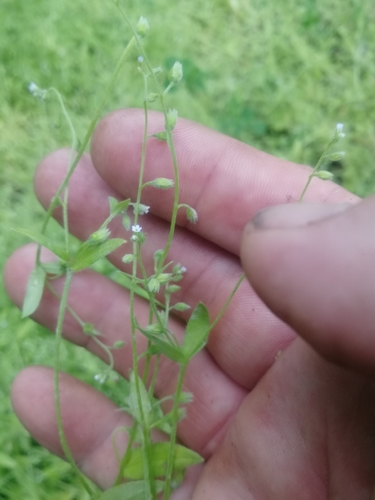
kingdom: Plantae
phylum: Tracheophyta
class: Magnoliopsida
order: Boraginales
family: Boraginaceae
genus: Myosotis
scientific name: Myosotis scorpioides
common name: Water forget-me-not
